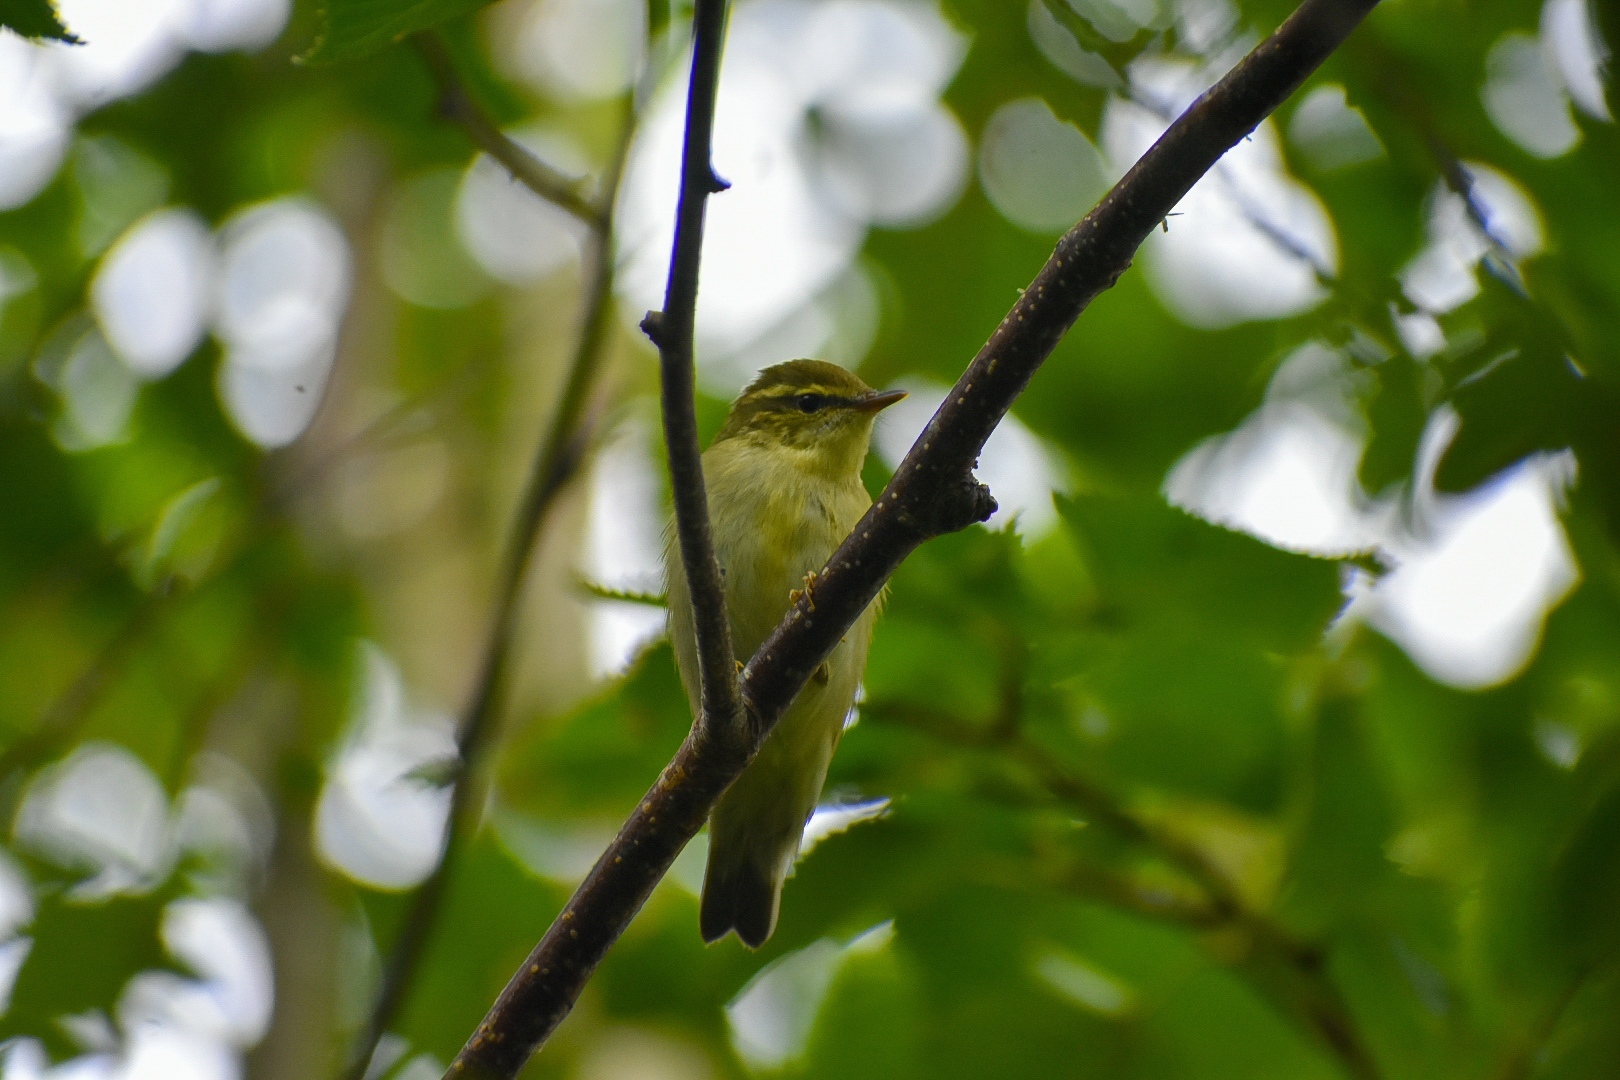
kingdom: Animalia
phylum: Chordata
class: Aves
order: Passeriformes
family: Phylloscopidae
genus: Phylloscopus
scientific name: Phylloscopus examinandus
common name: Kamchatka leaf warbler
